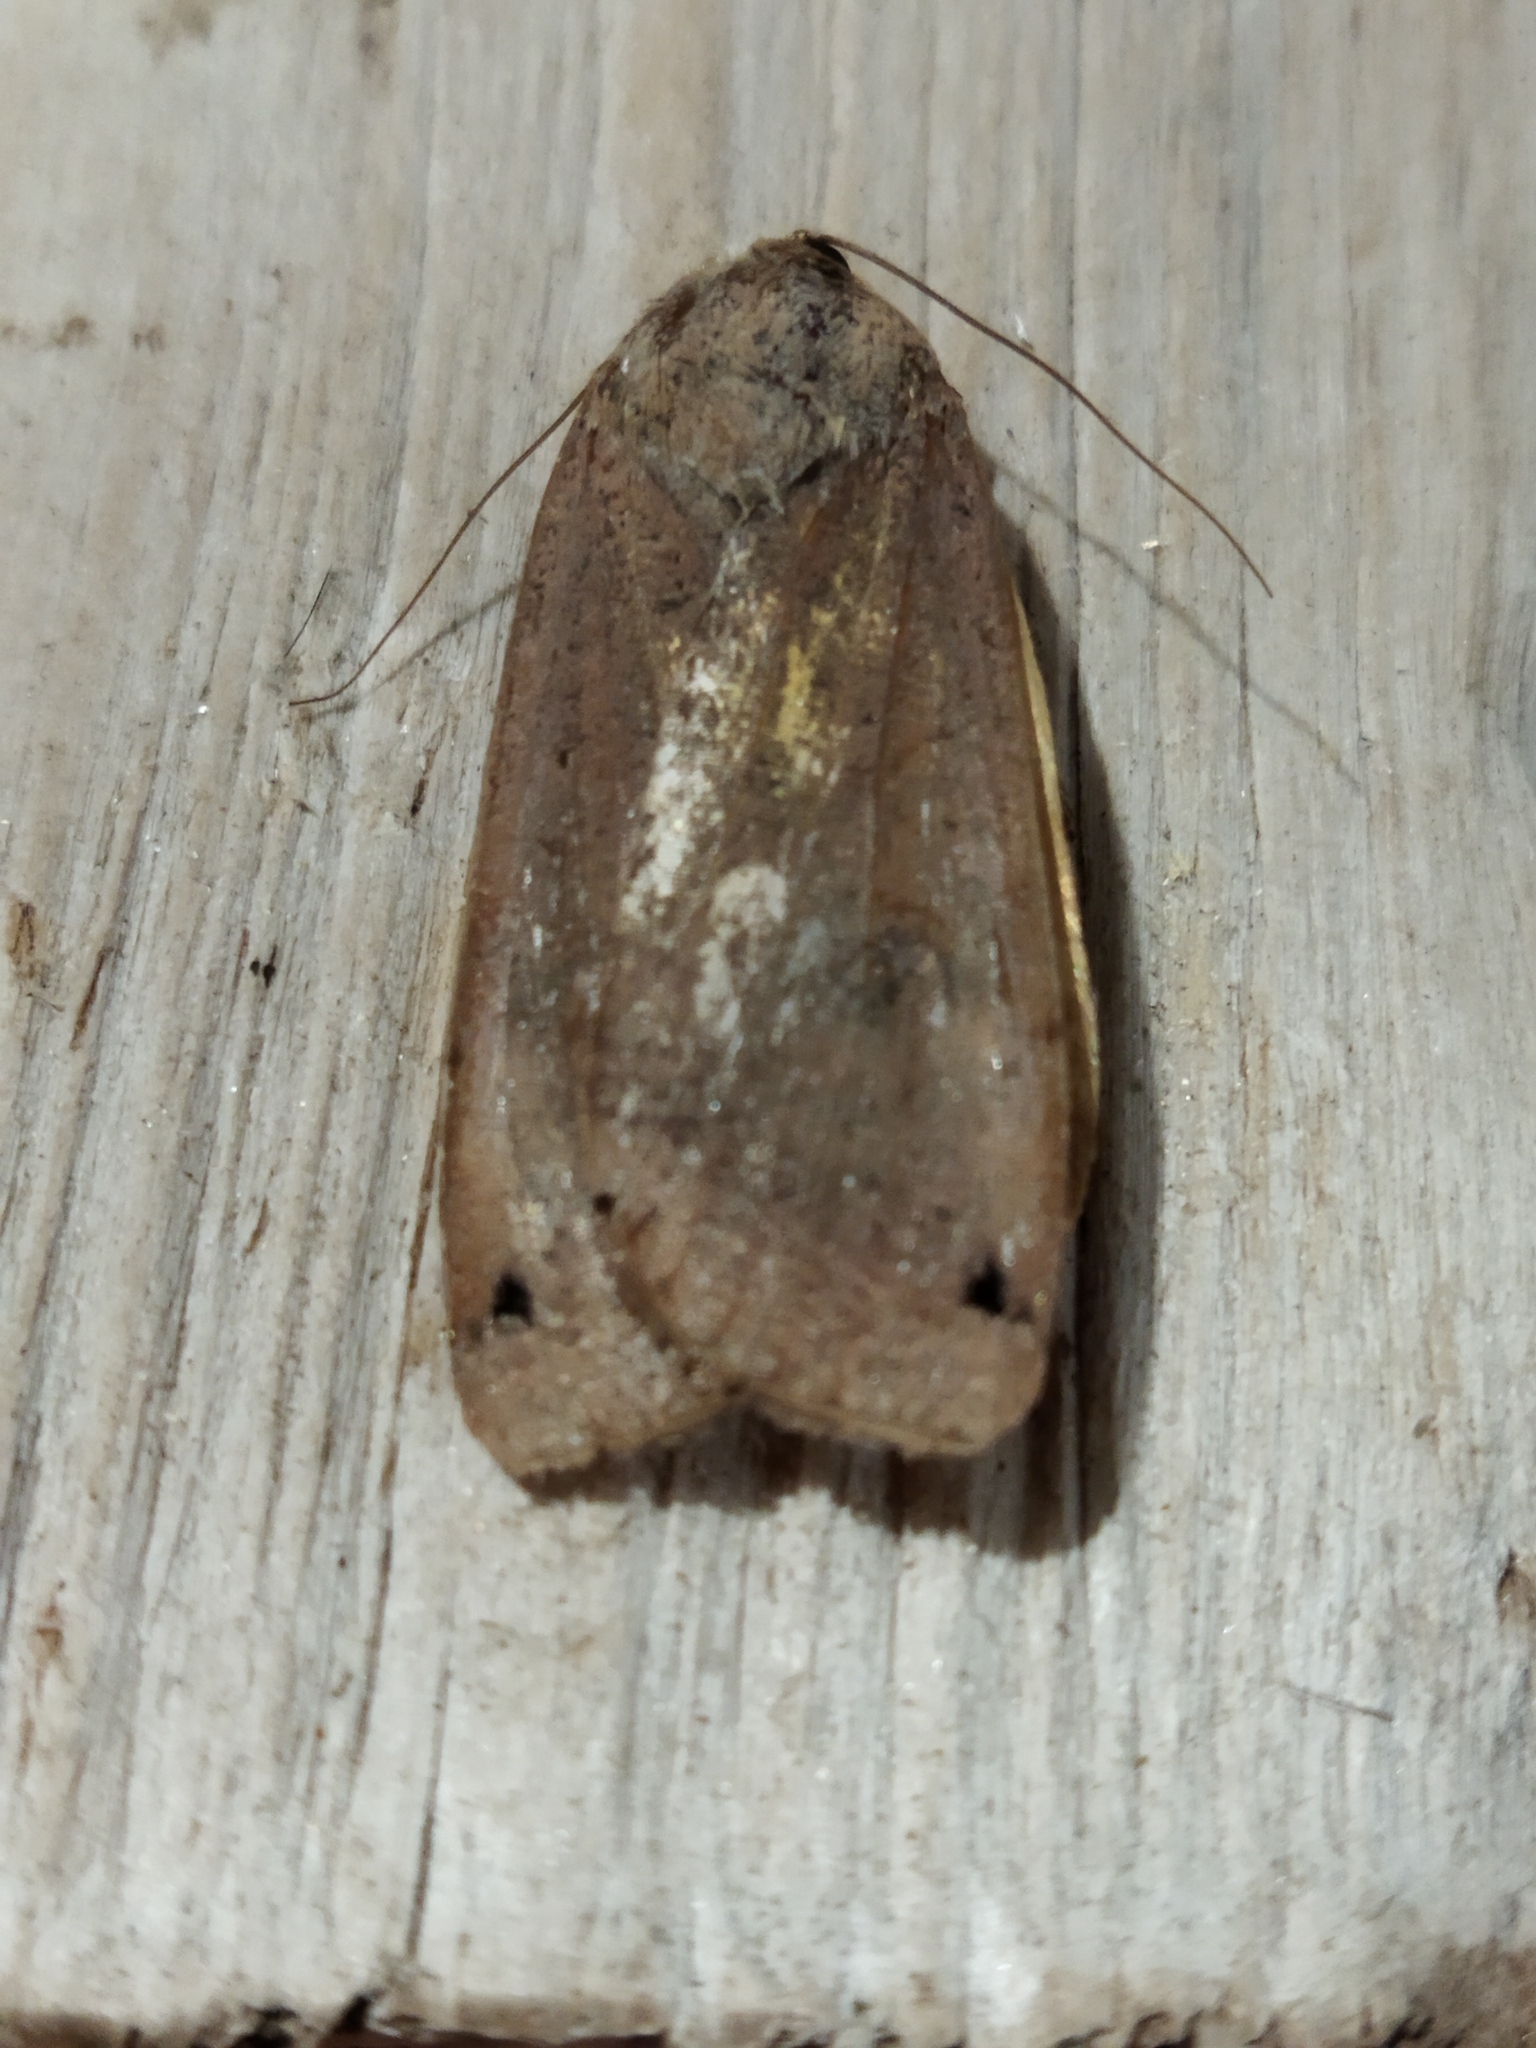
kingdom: Animalia
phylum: Arthropoda
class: Insecta
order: Lepidoptera
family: Noctuidae
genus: Noctua
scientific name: Noctua pronuba
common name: Large yellow underwing
